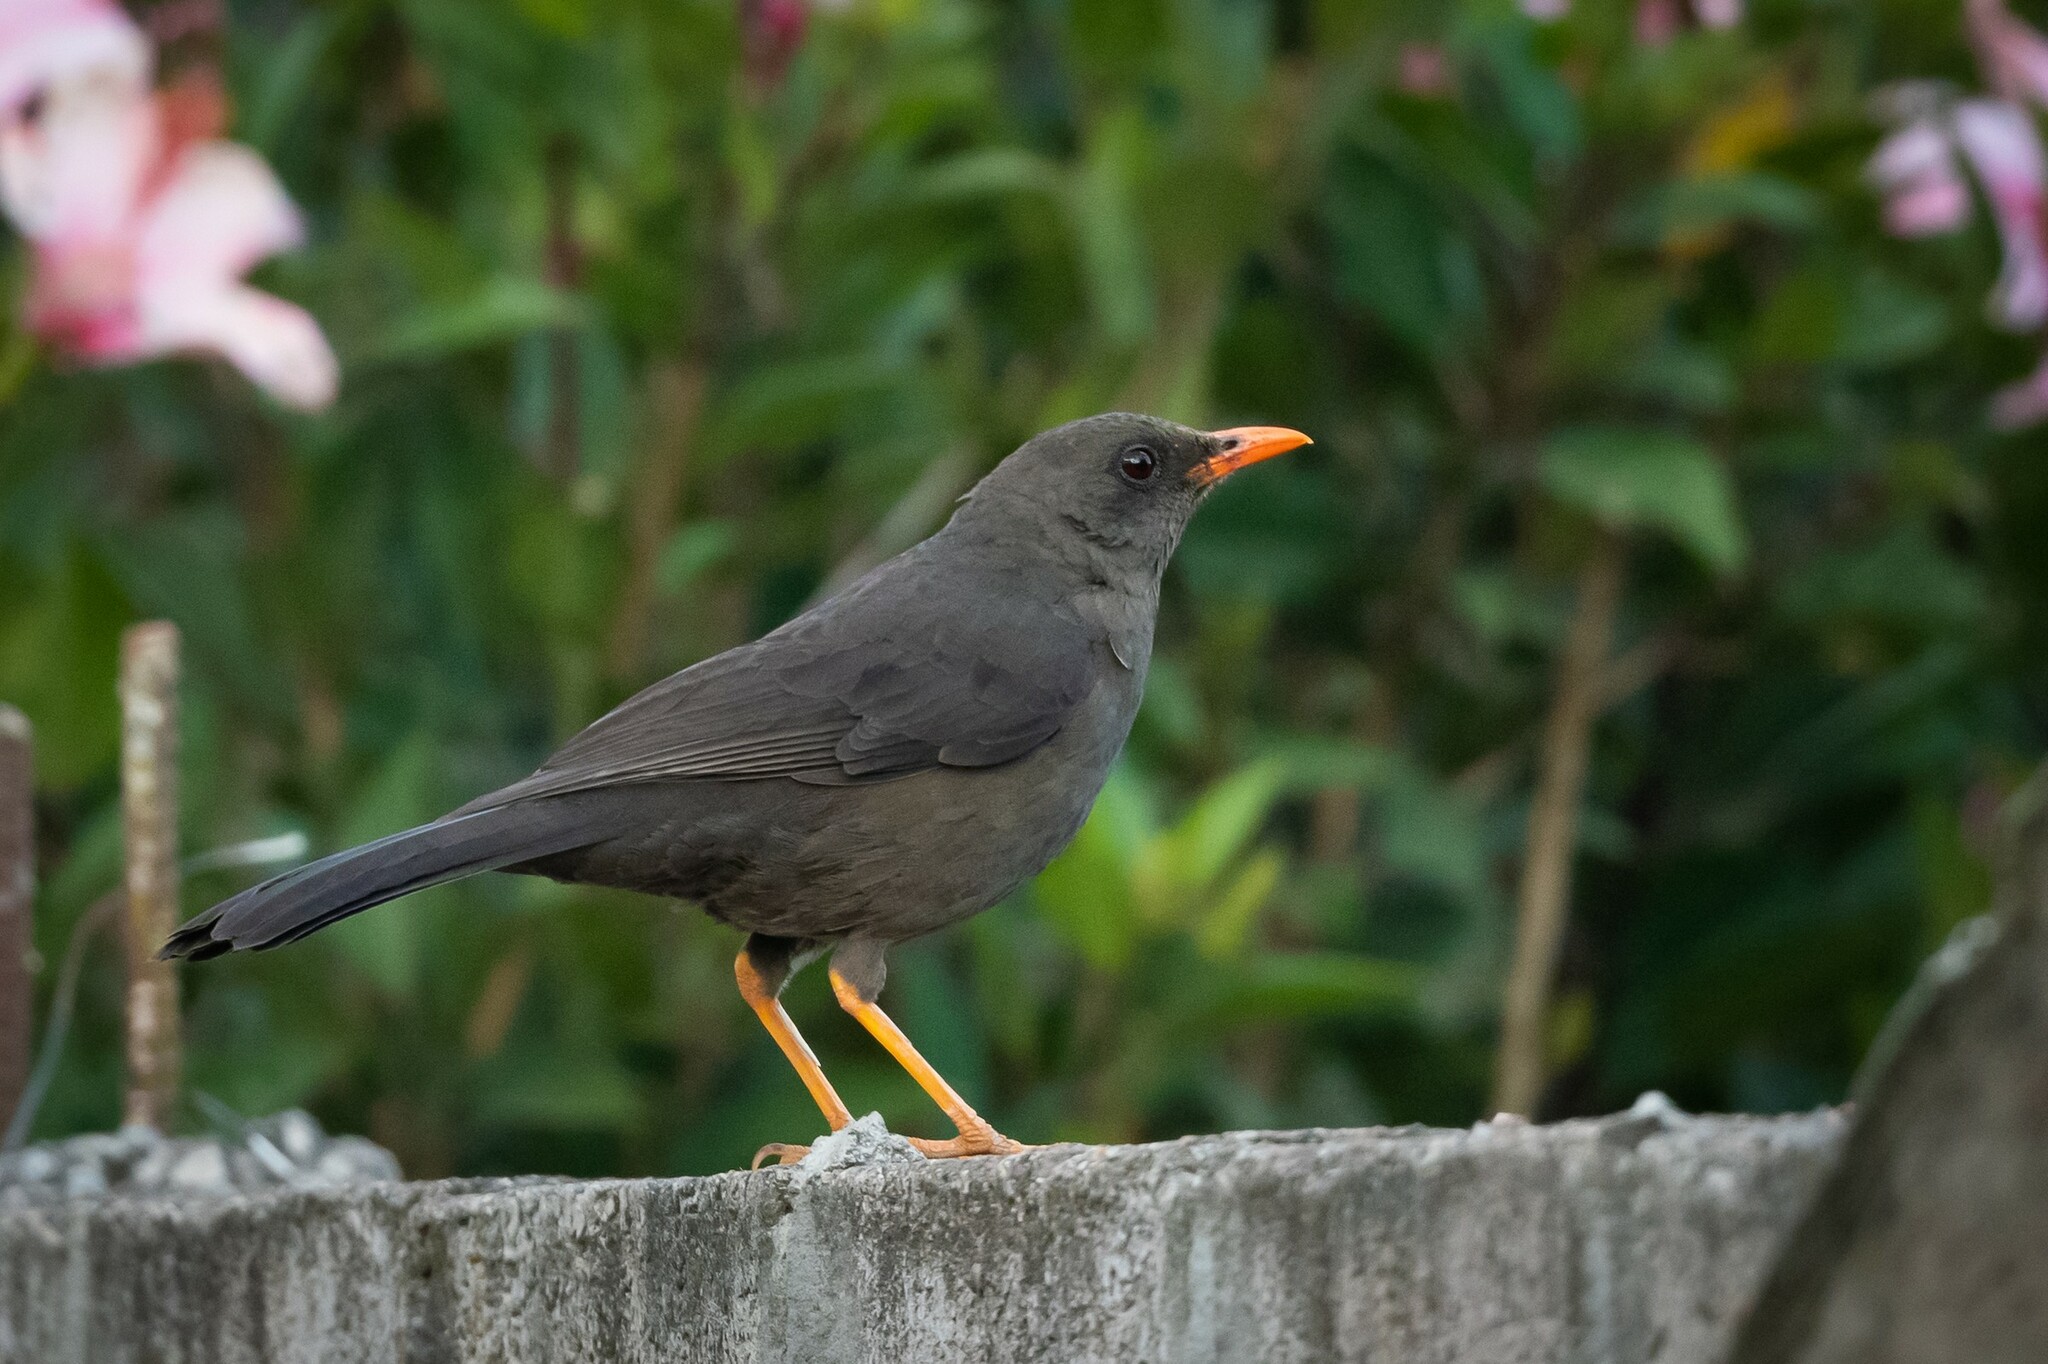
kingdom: Animalia
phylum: Chordata
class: Aves
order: Passeriformes
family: Turdidae
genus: Turdus
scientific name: Turdus fuscater
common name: Great thrush
